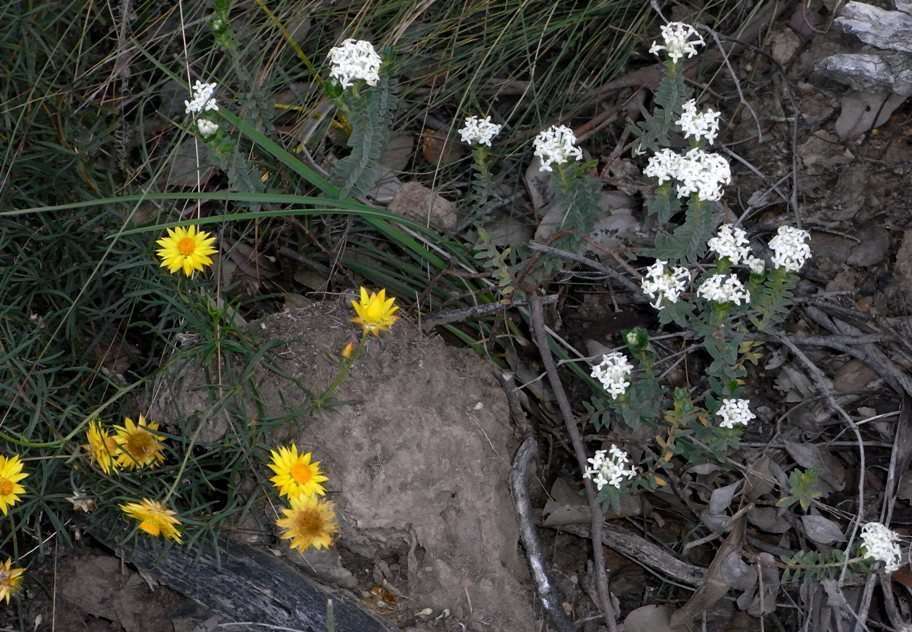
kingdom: Plantae
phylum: Tracheophyta
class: Magnoliopsida
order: Asterales
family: Asteraceae
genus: Xerochrysum
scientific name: Xerochrysum viscosum
